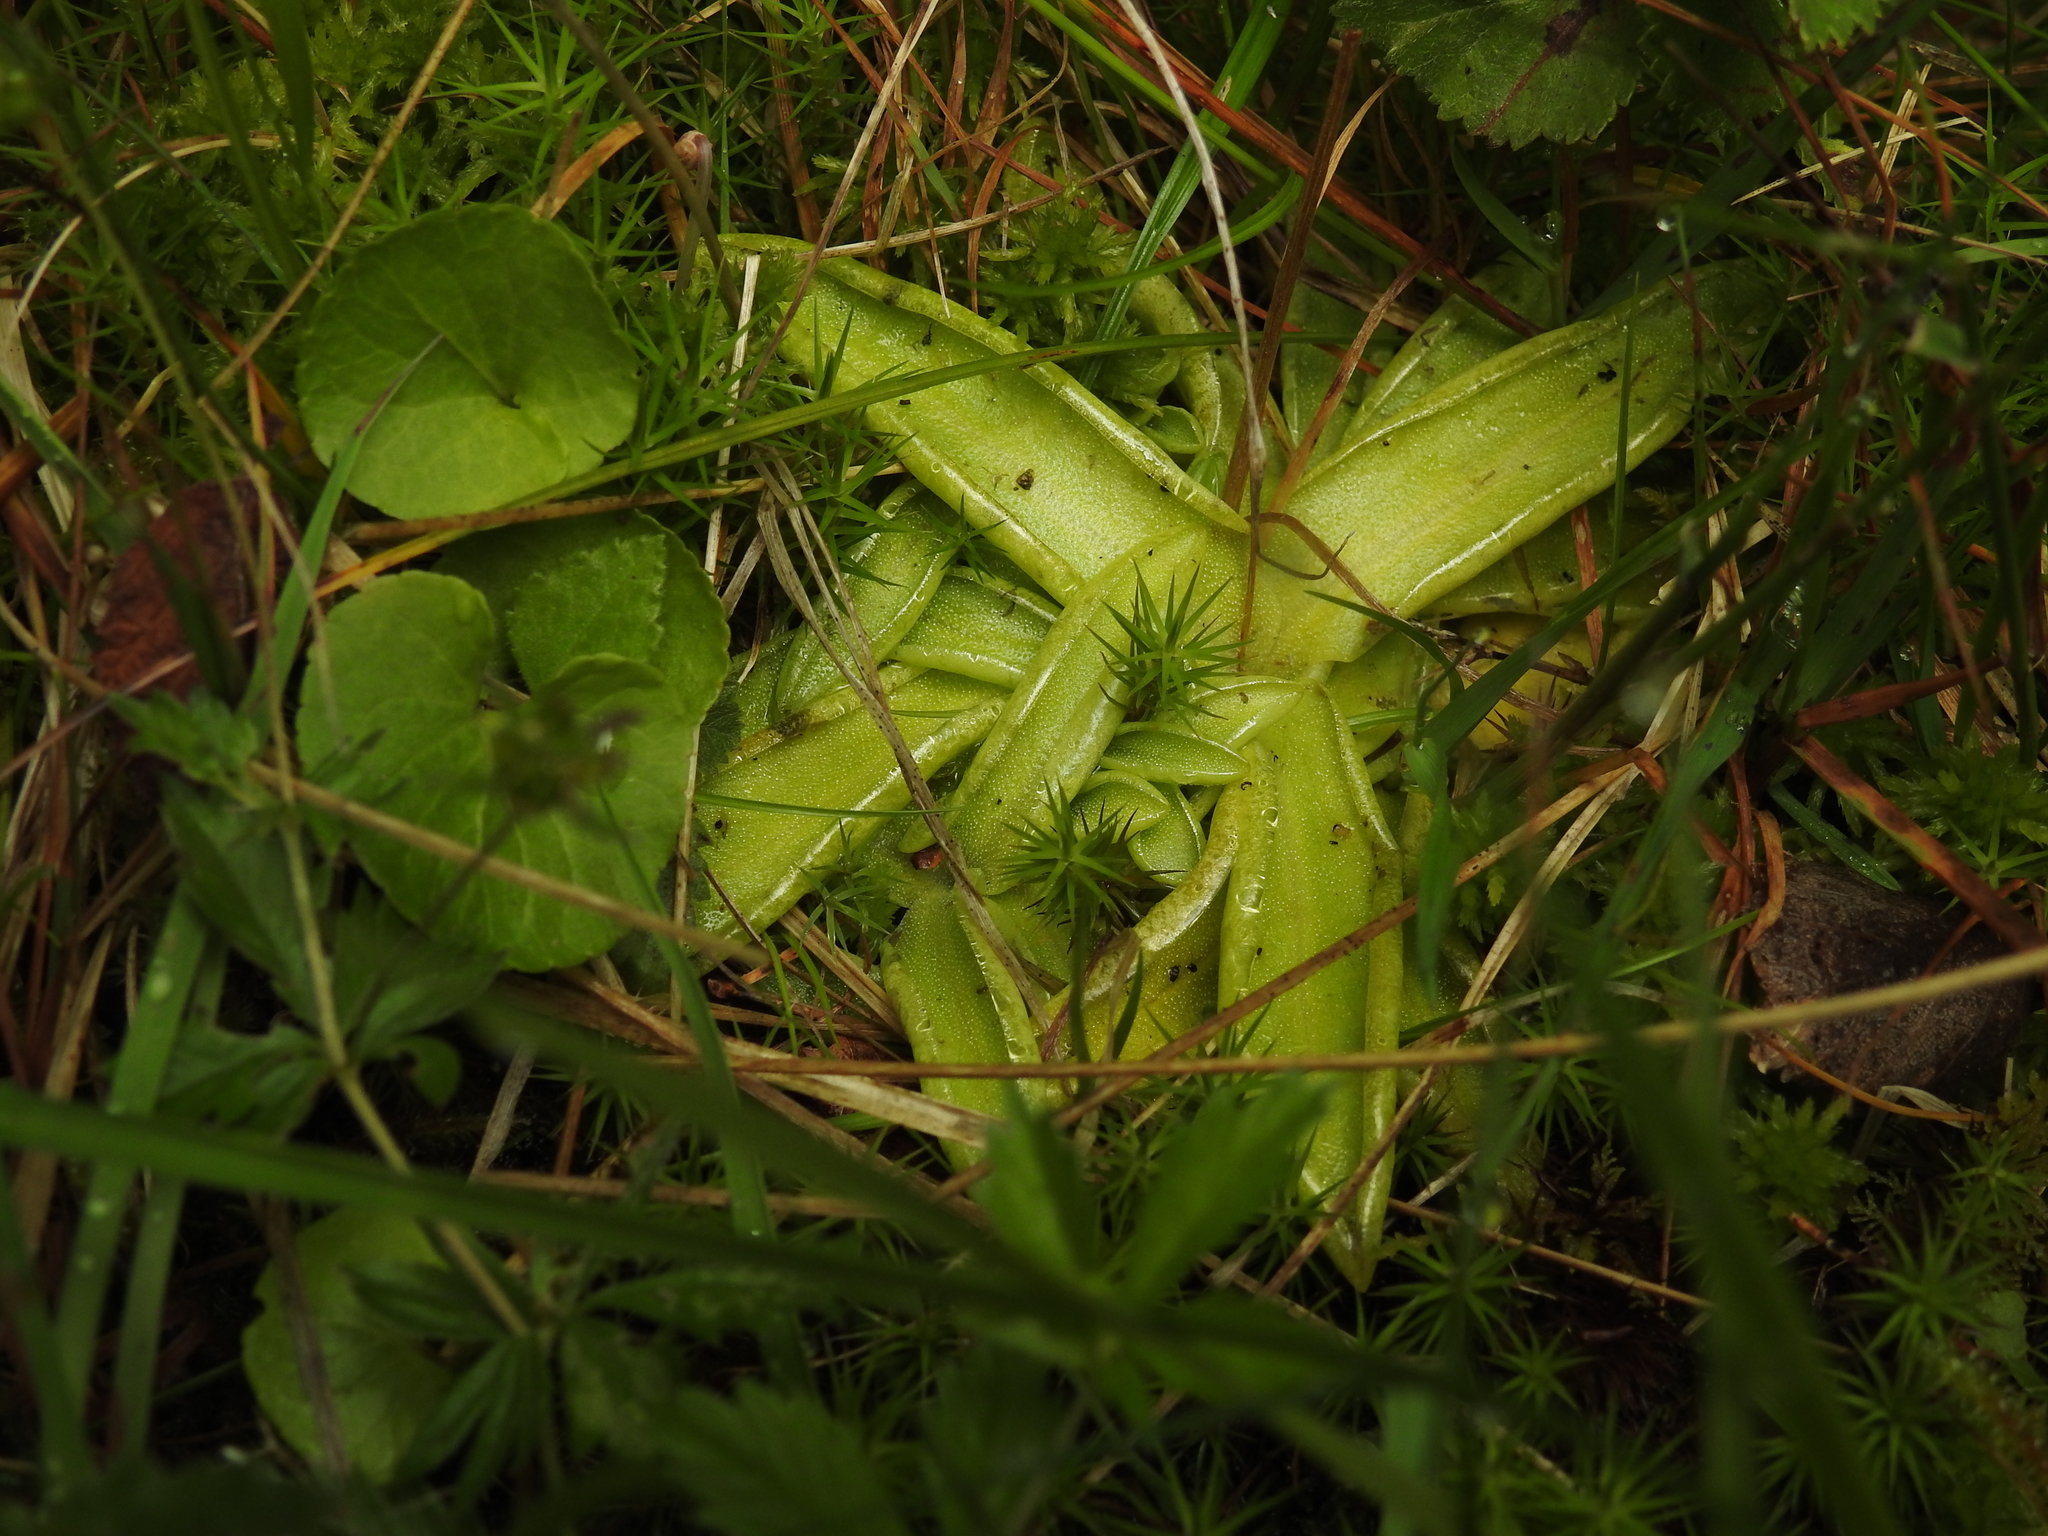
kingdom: Plantae
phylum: Tracheophyta
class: Magnoliopsida
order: Lamiales
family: Lentibulariaceae
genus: Pinguicula
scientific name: Pinguicula vulgaris
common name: Common butterwort
